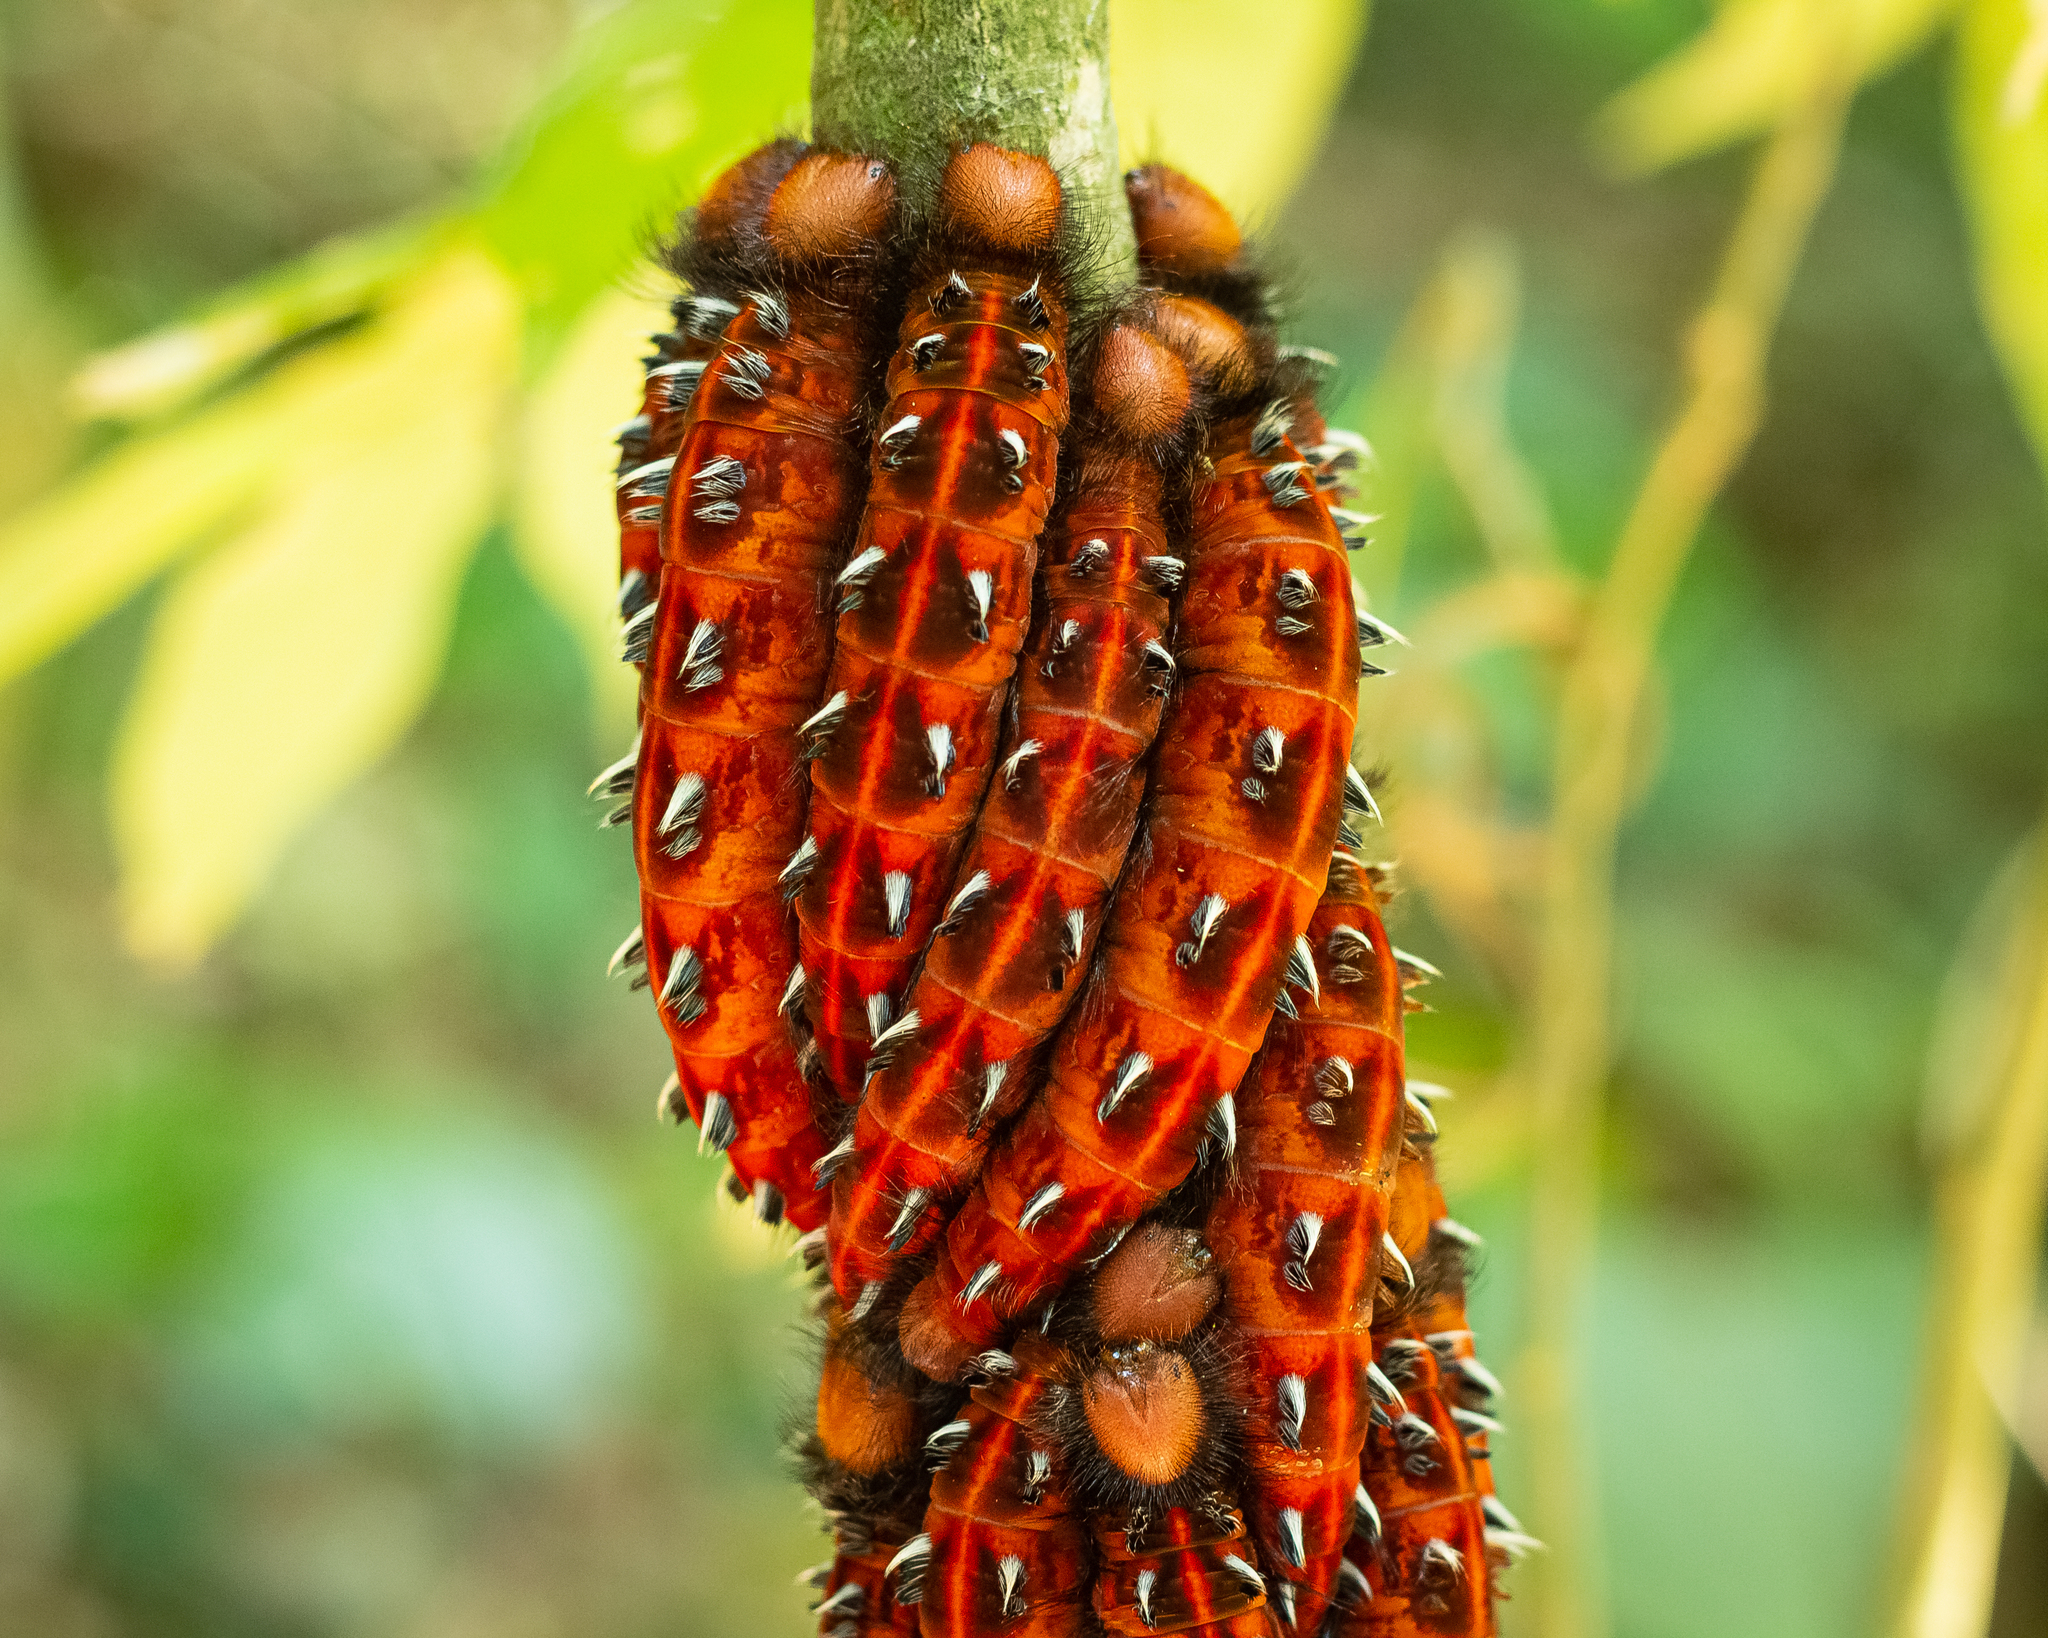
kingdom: Animalia
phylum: Arthropoda
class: Insecta
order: Lepidoptera
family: Nymphalidae
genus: Morpho
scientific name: Morpho hercules
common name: Hercules morpho
